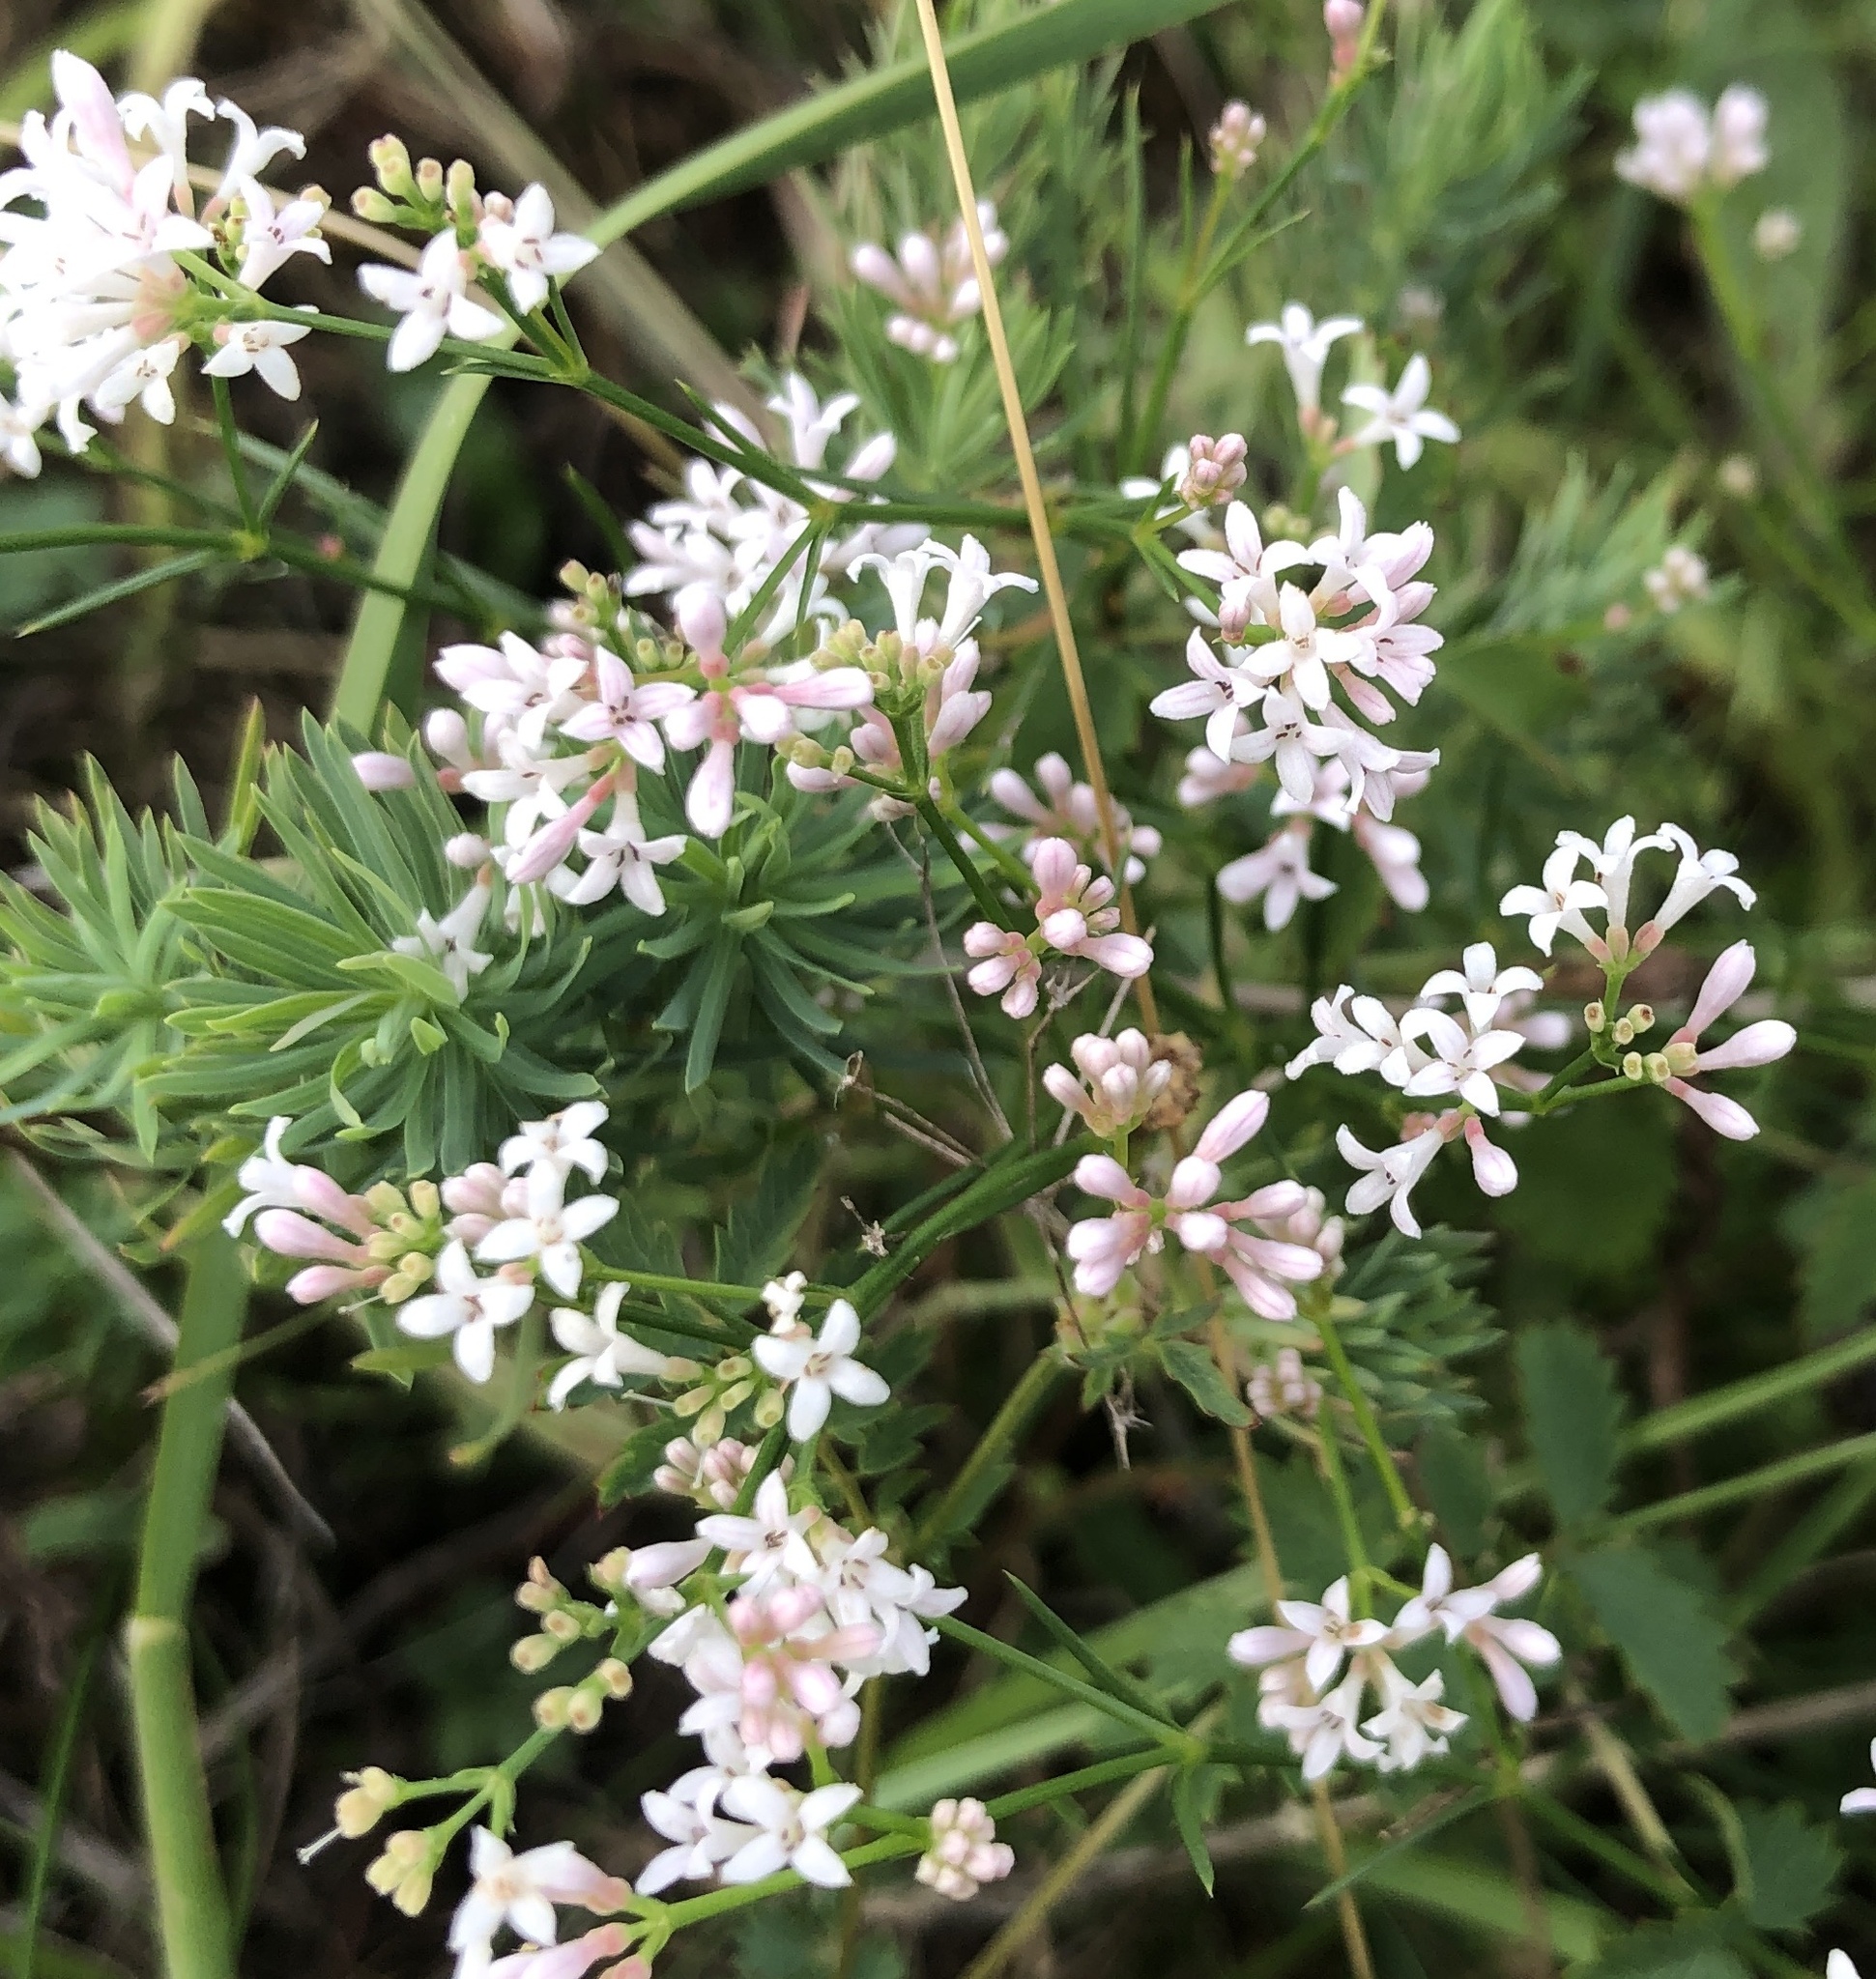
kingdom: Plantae
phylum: Tracheophyta
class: Magnoliopsida
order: Gentianales
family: Rubiaceae
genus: Cynanchica
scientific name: Cynanchica pyrenaica
